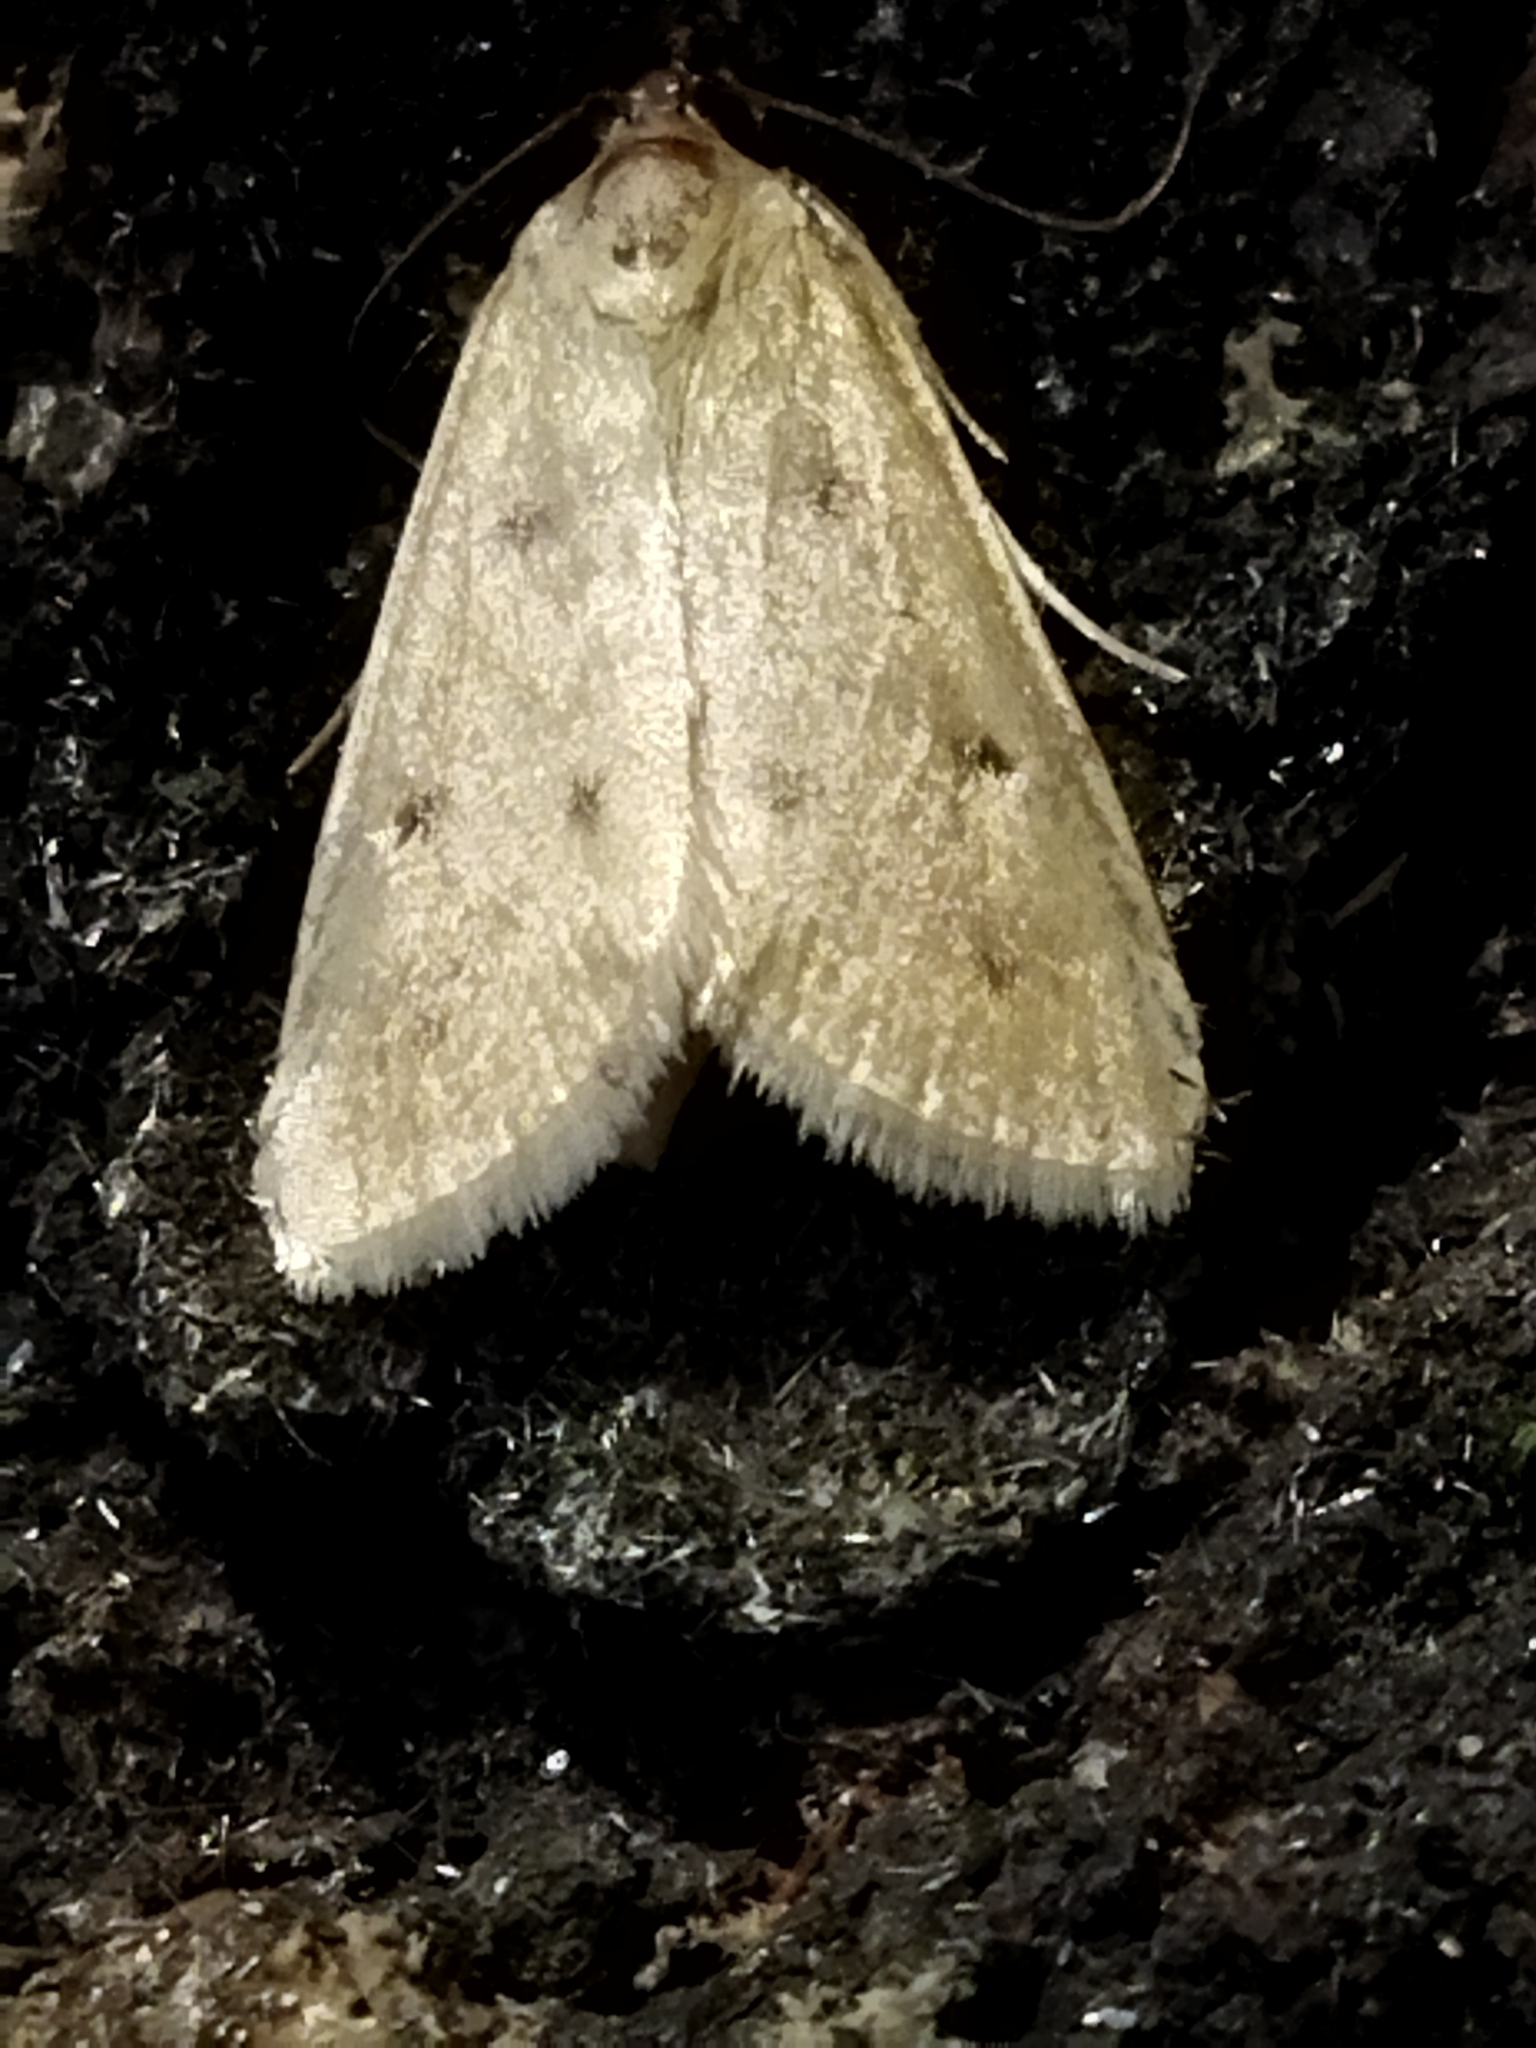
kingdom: Animalia
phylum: Arthropoda
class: Insecta
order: Lepidoptera
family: Crambidae
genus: Achyra
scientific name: Achyra nudalis
